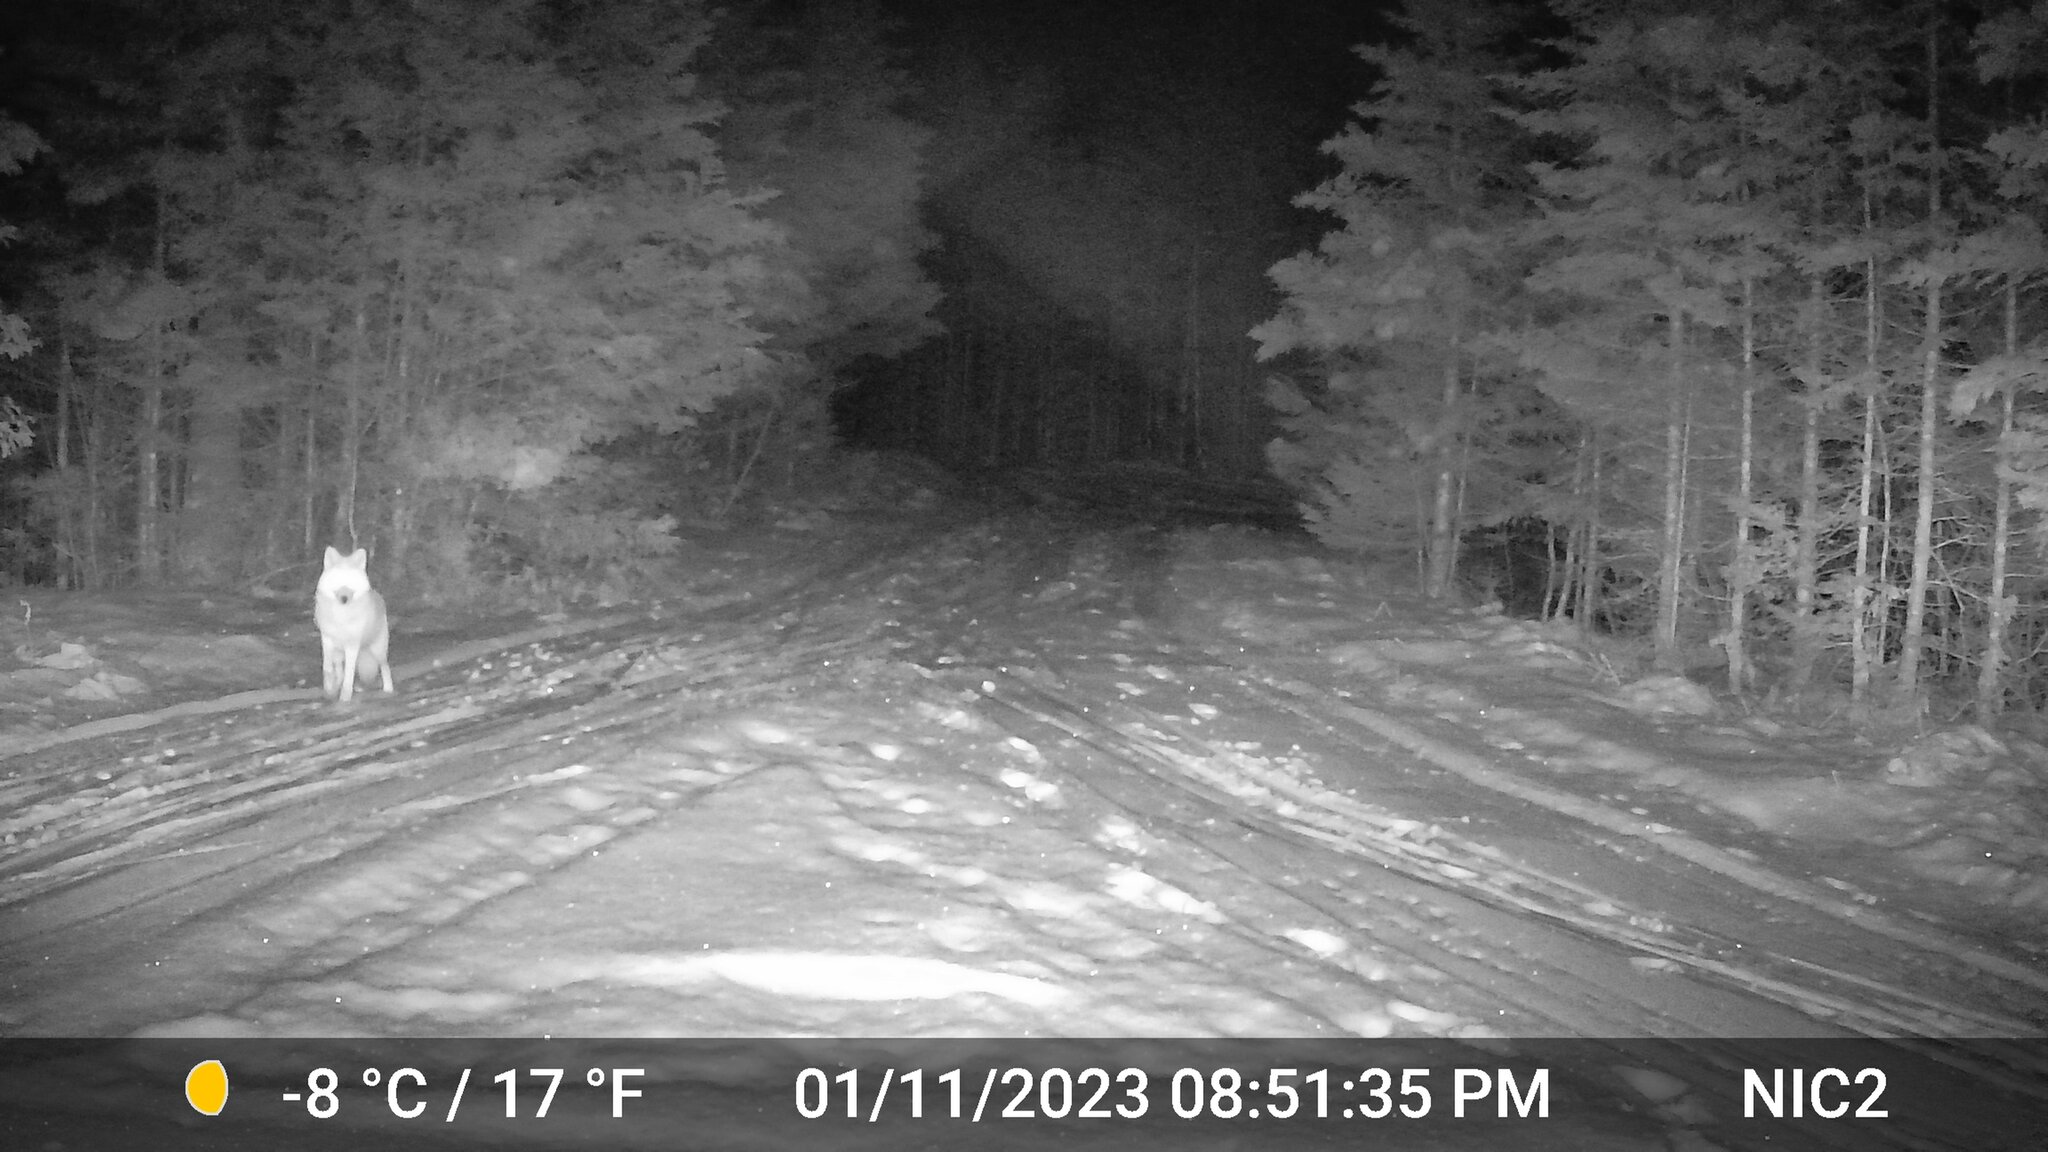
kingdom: Animalia
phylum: Chordata
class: Mammalia
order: Carnivora
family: Canidae
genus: Canis
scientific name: Canis latrans
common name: Coyote
